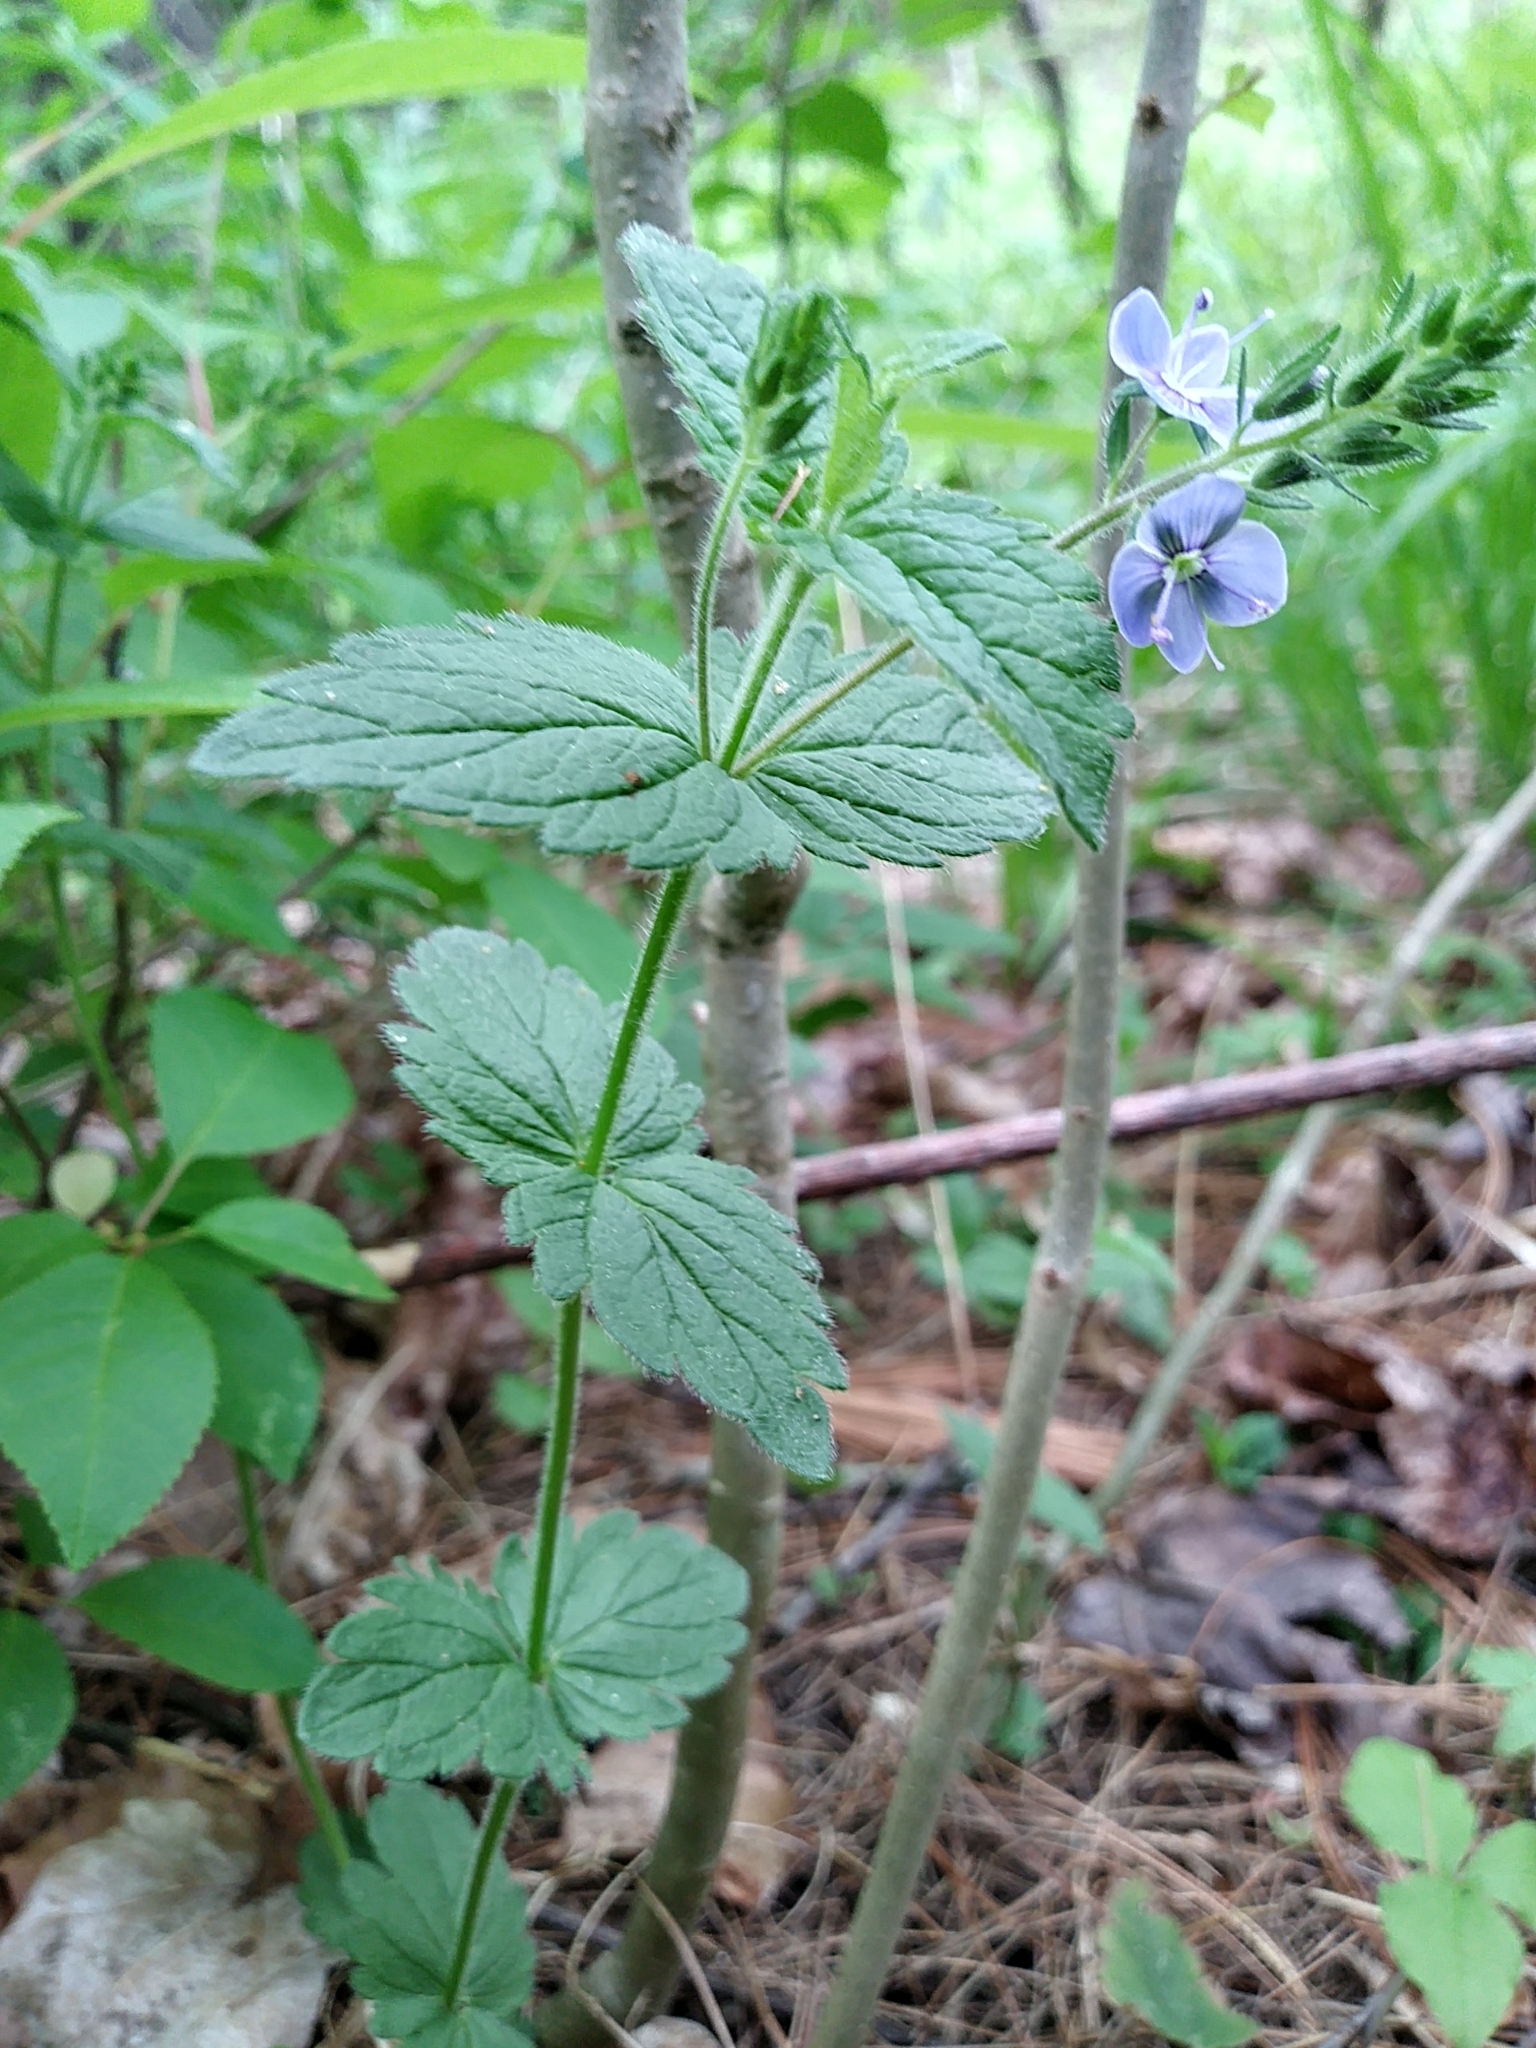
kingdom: Plantae
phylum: Tracheophyta
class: Magnoliopsida
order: Lamiales
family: Plantaginaceae
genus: Veronica
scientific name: Veronica chamaedrys
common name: Germander speedwell
